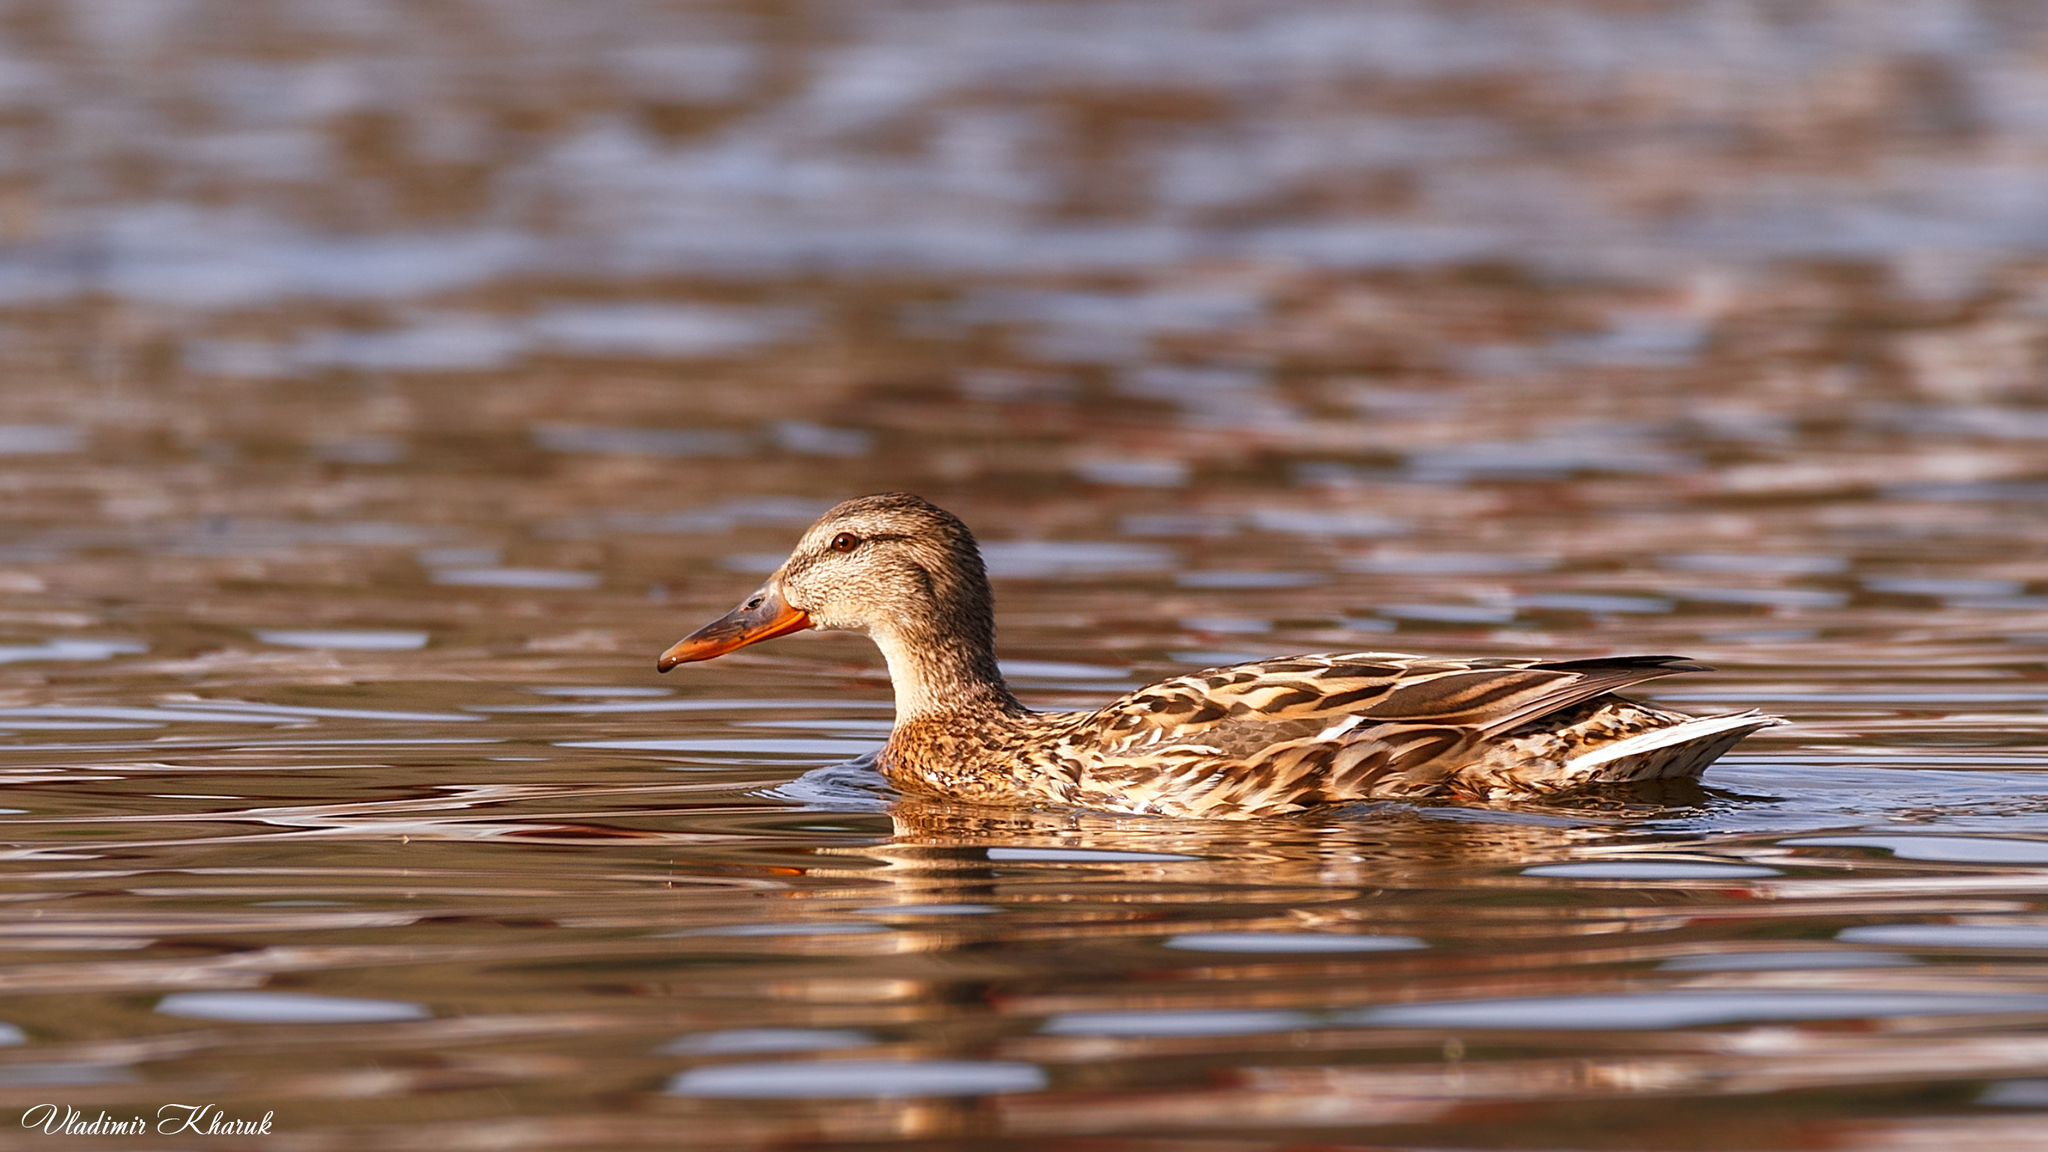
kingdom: Animalia
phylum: Chordata
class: Aves
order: Anseriformes
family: Anatidae
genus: Anas
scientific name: Anas platyrhynchos
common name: Mallard
